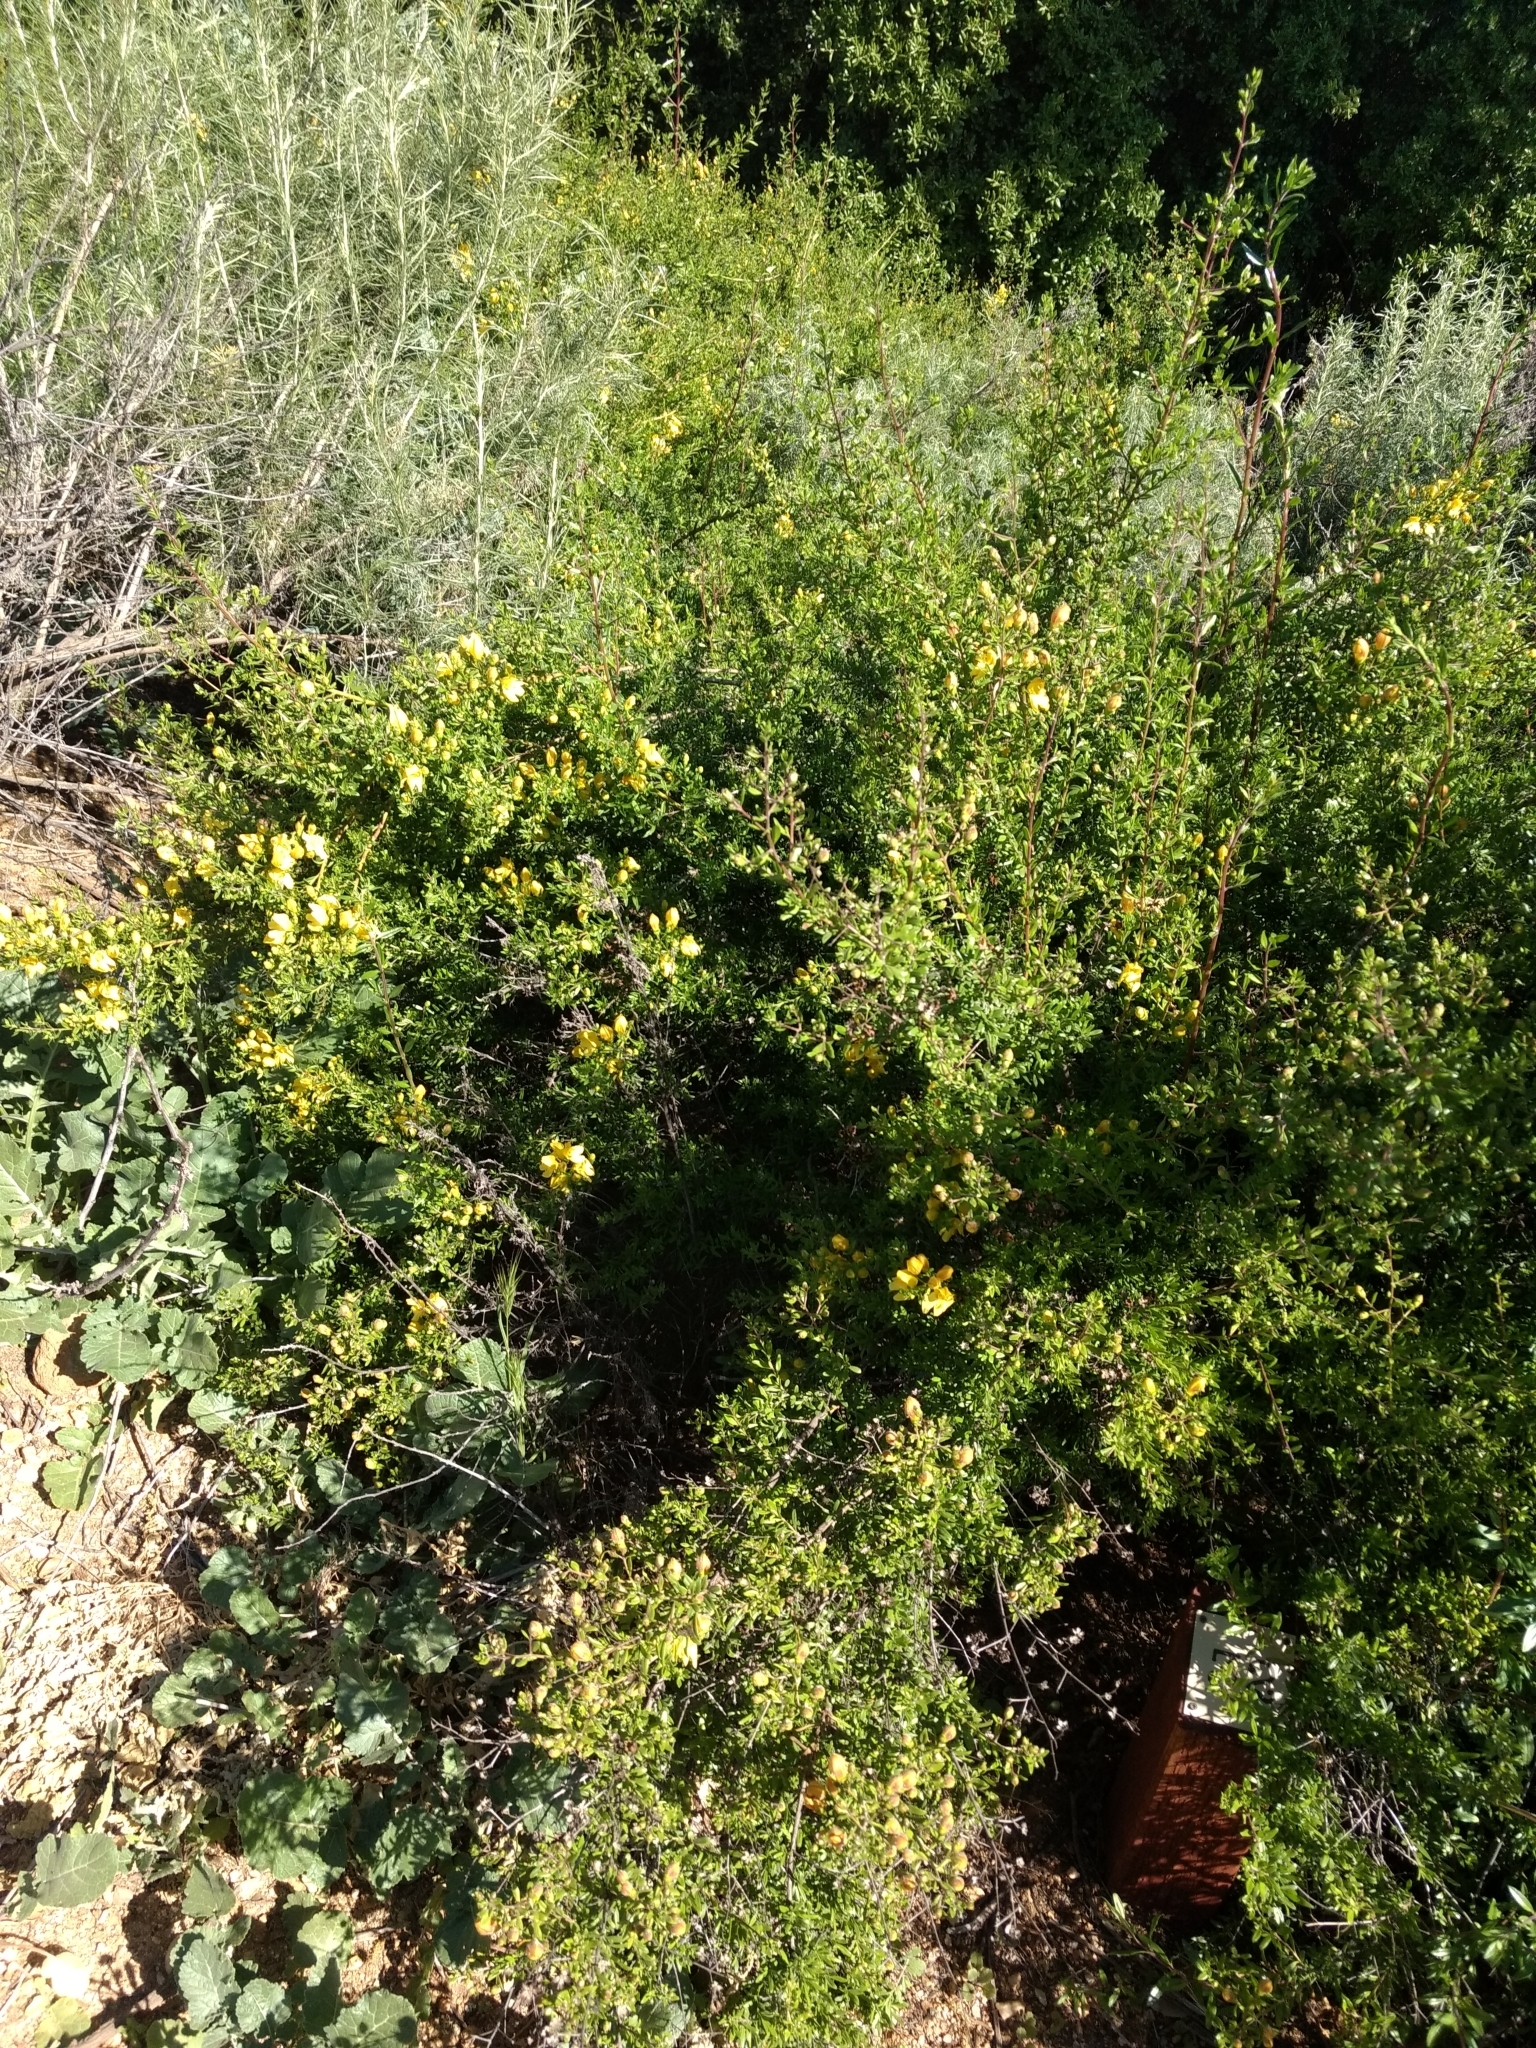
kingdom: Plantae
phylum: Tracheophyta
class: Magnoliopsida
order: Lamiales
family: Plantaginaceae
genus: Keckiella
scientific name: Keckiella antirrhinoides
